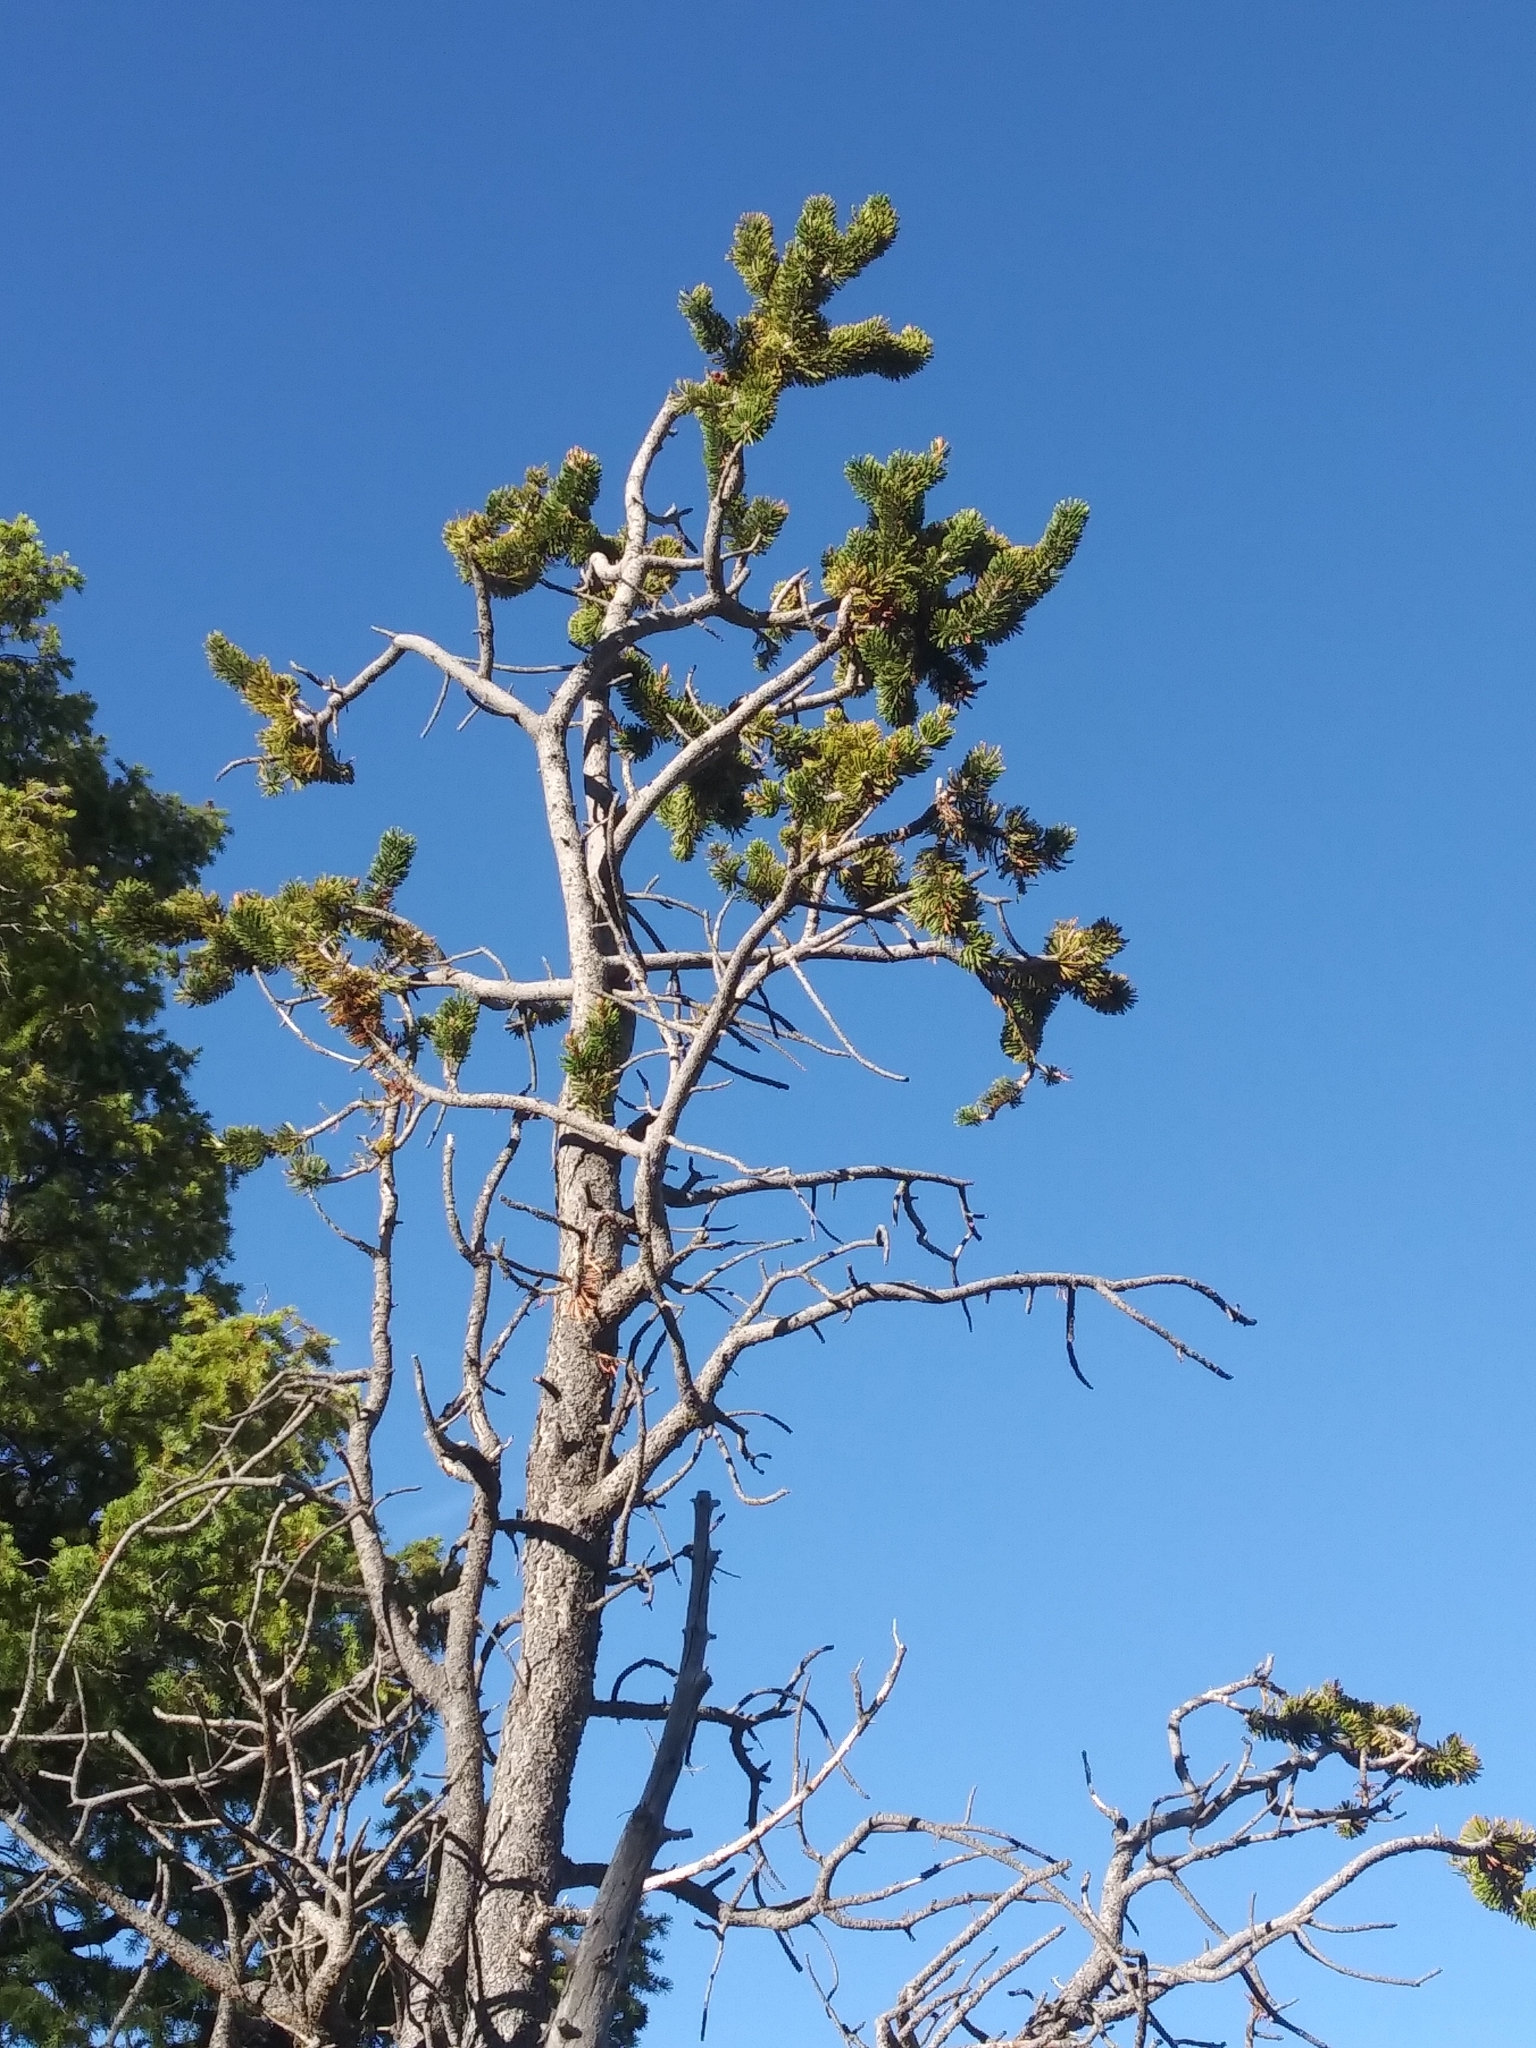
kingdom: Plantae
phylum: Tracheophyta
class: Pinopsida
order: Pinales
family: Pinaceae
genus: Pinus
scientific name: Pinus longaeva
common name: Intermountain bristlecone pine
